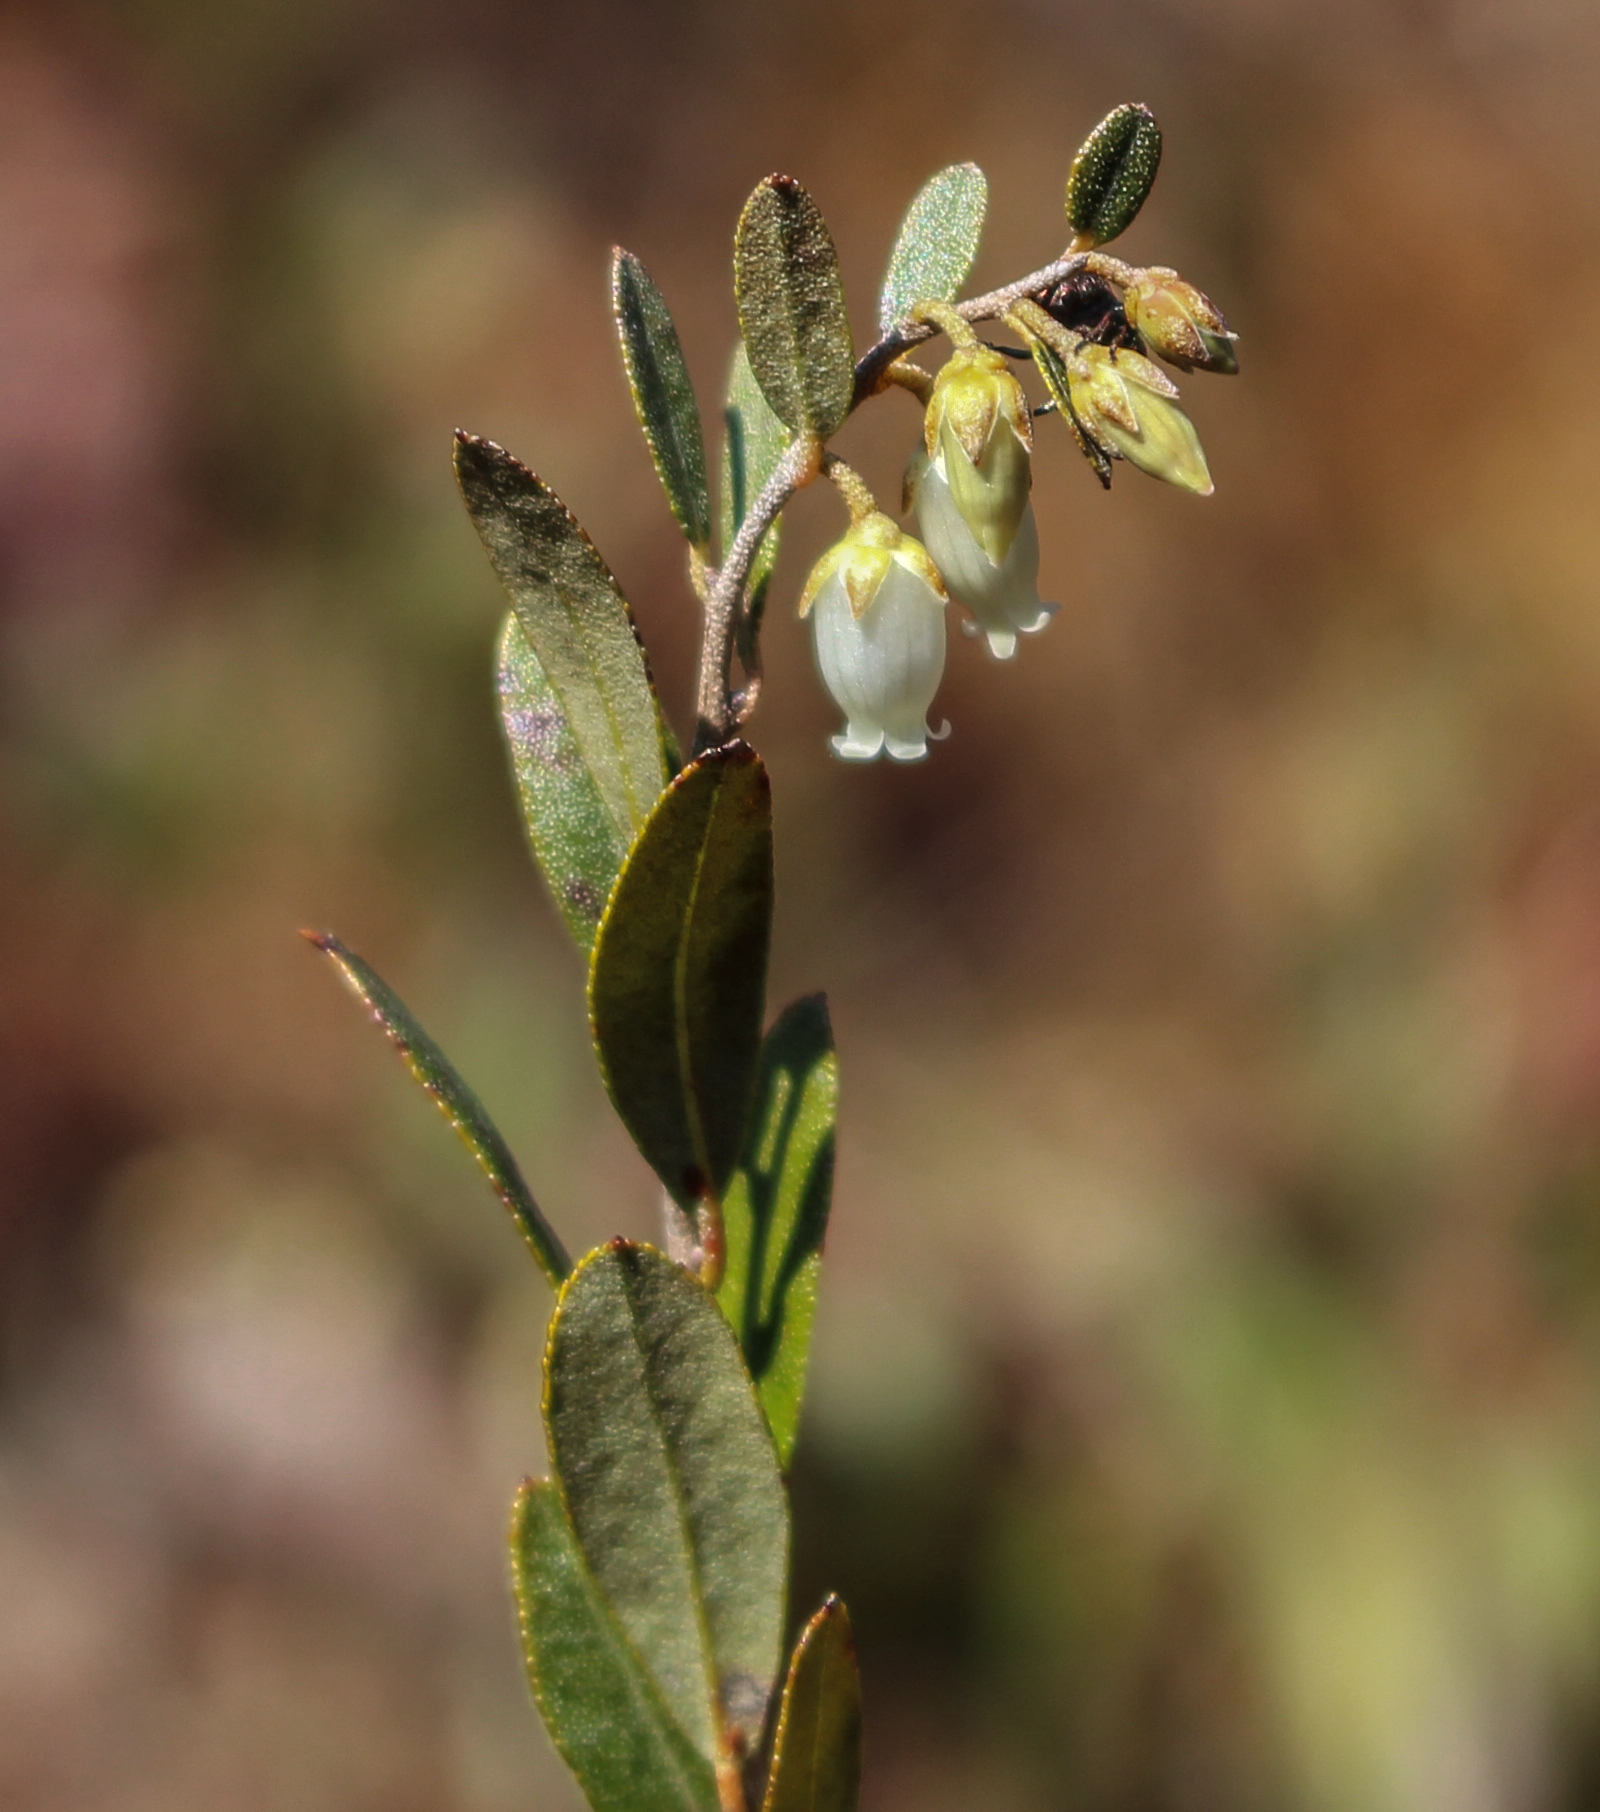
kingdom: Plantae
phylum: Tracheophyta
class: Magnoliopsida
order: Ericales
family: Ericaceae
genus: Chamaedaphne
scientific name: Chamaedaphne calyculata
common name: Leatherleaf
